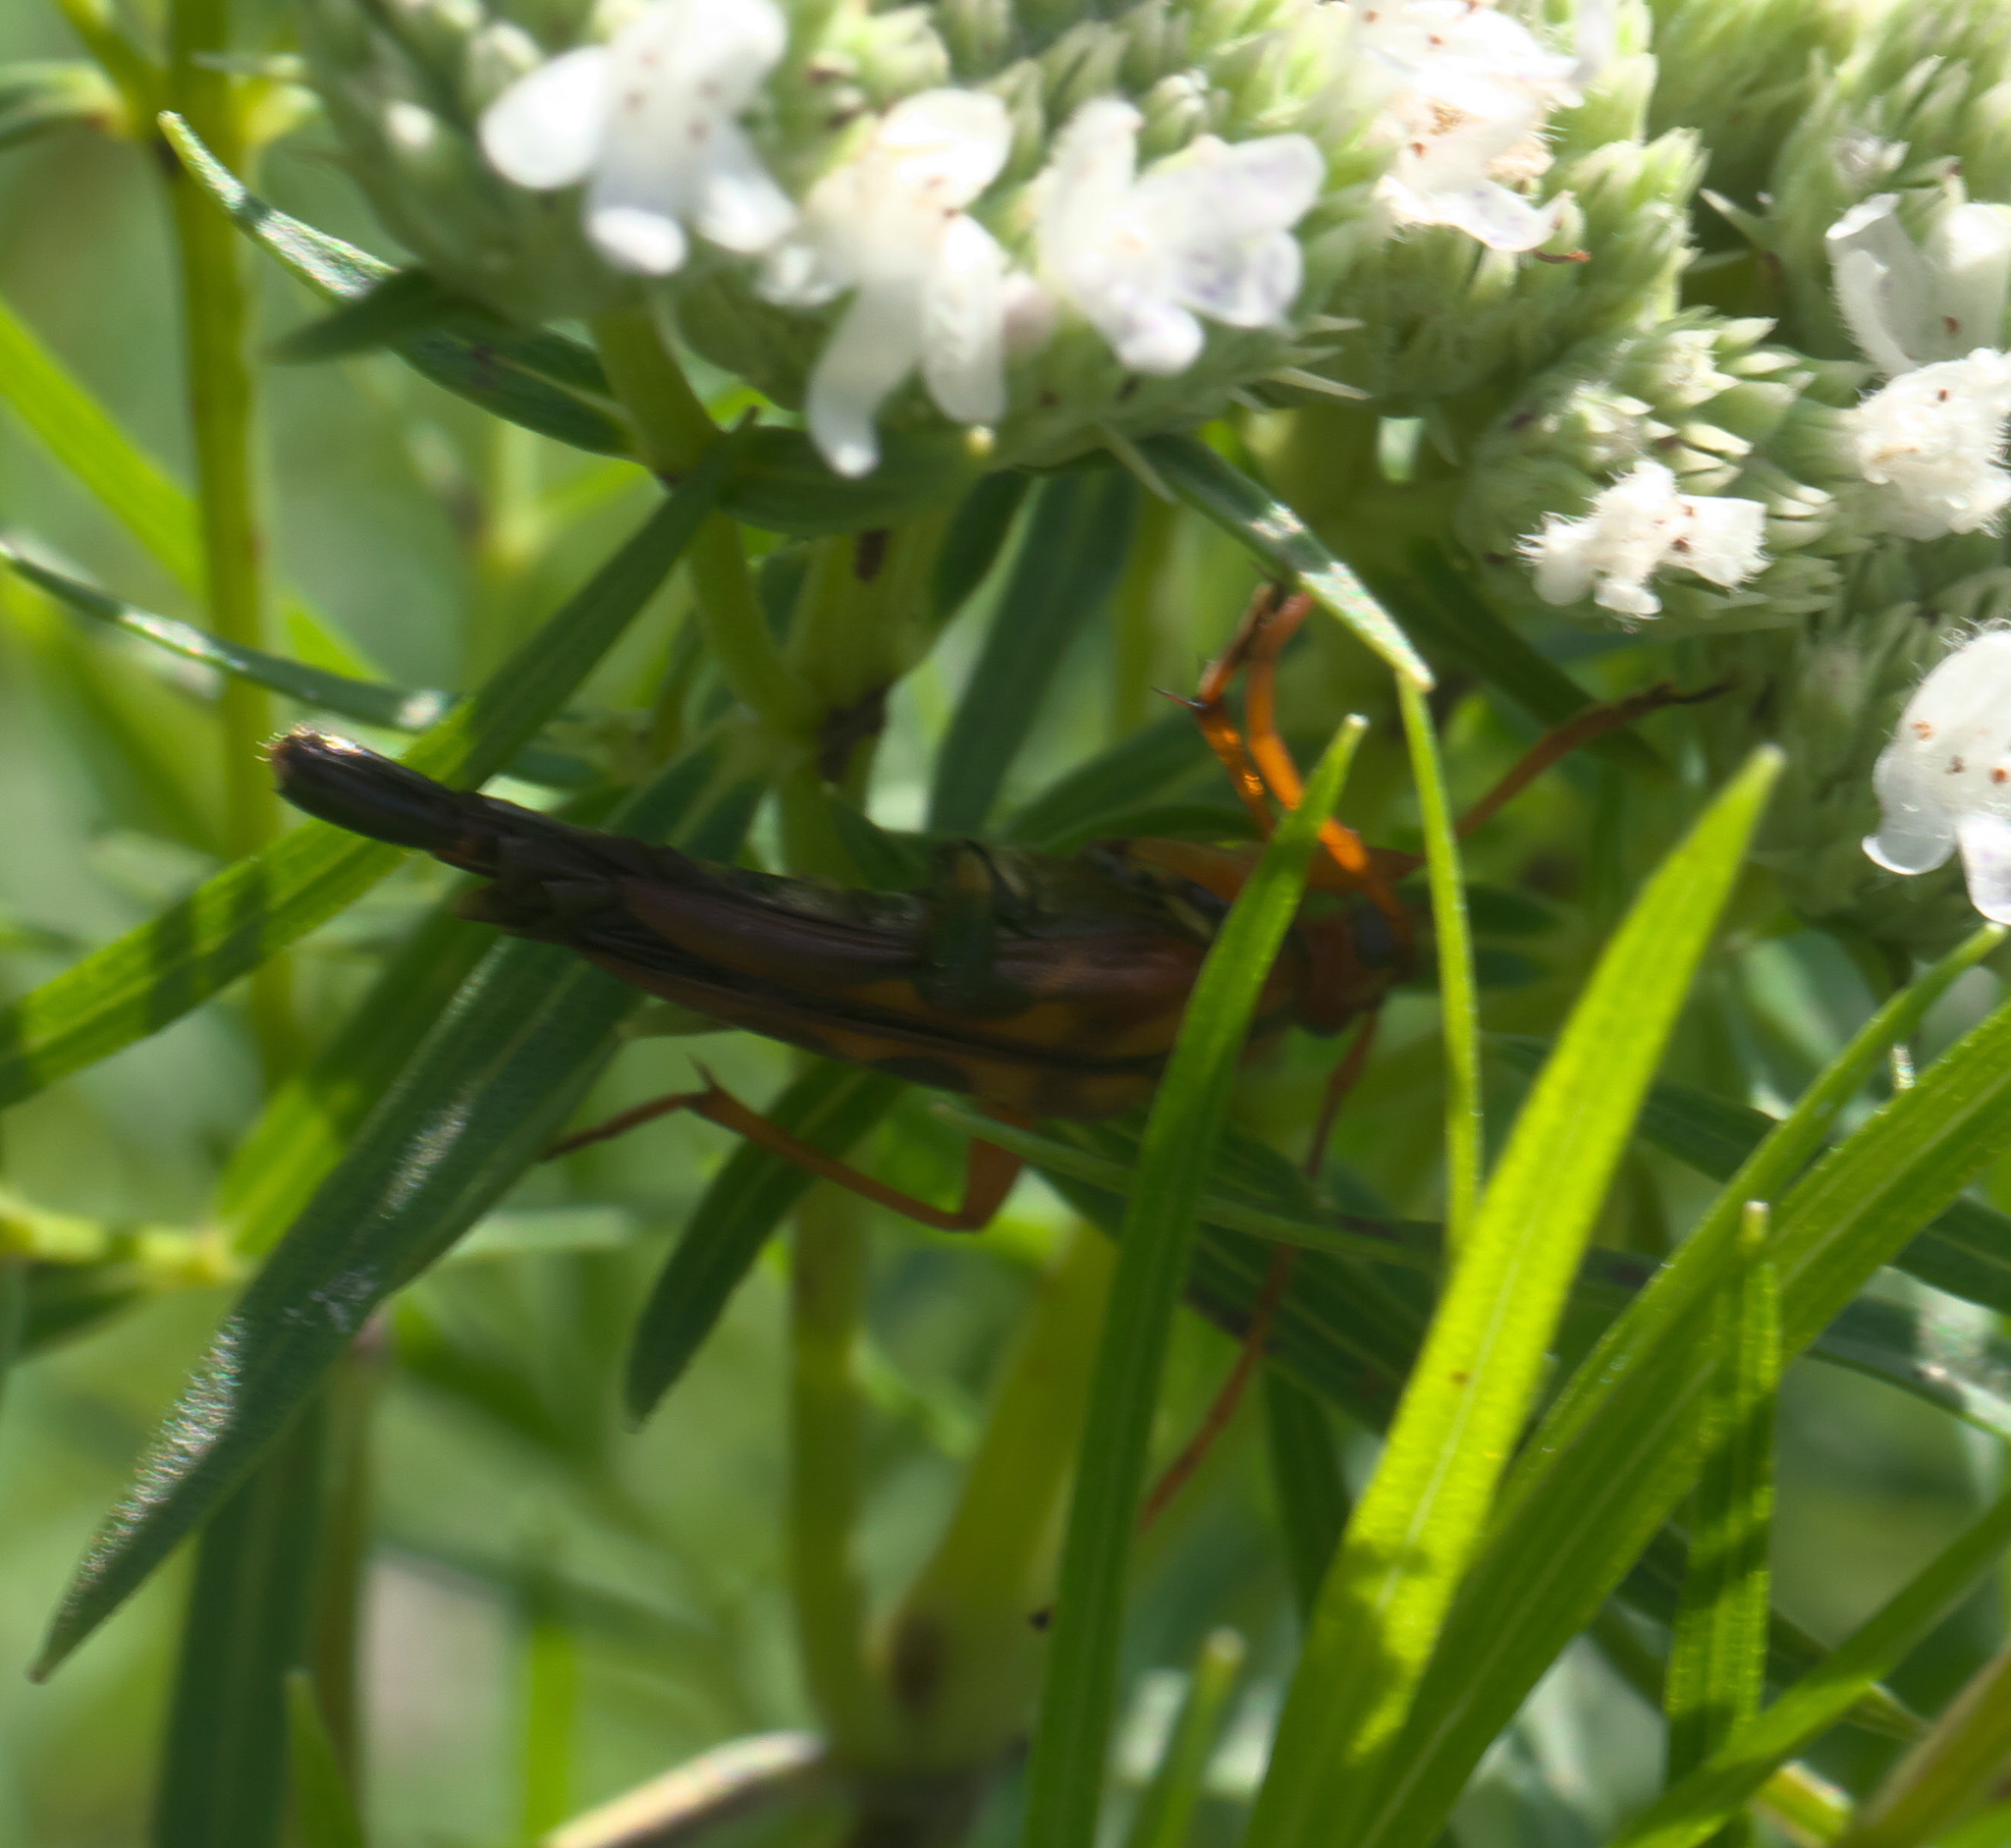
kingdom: Animalia
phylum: Arthropoda
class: Insecta
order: Coleoptera
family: Cerambycidae
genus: Strangalia
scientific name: Strangalia virilis
